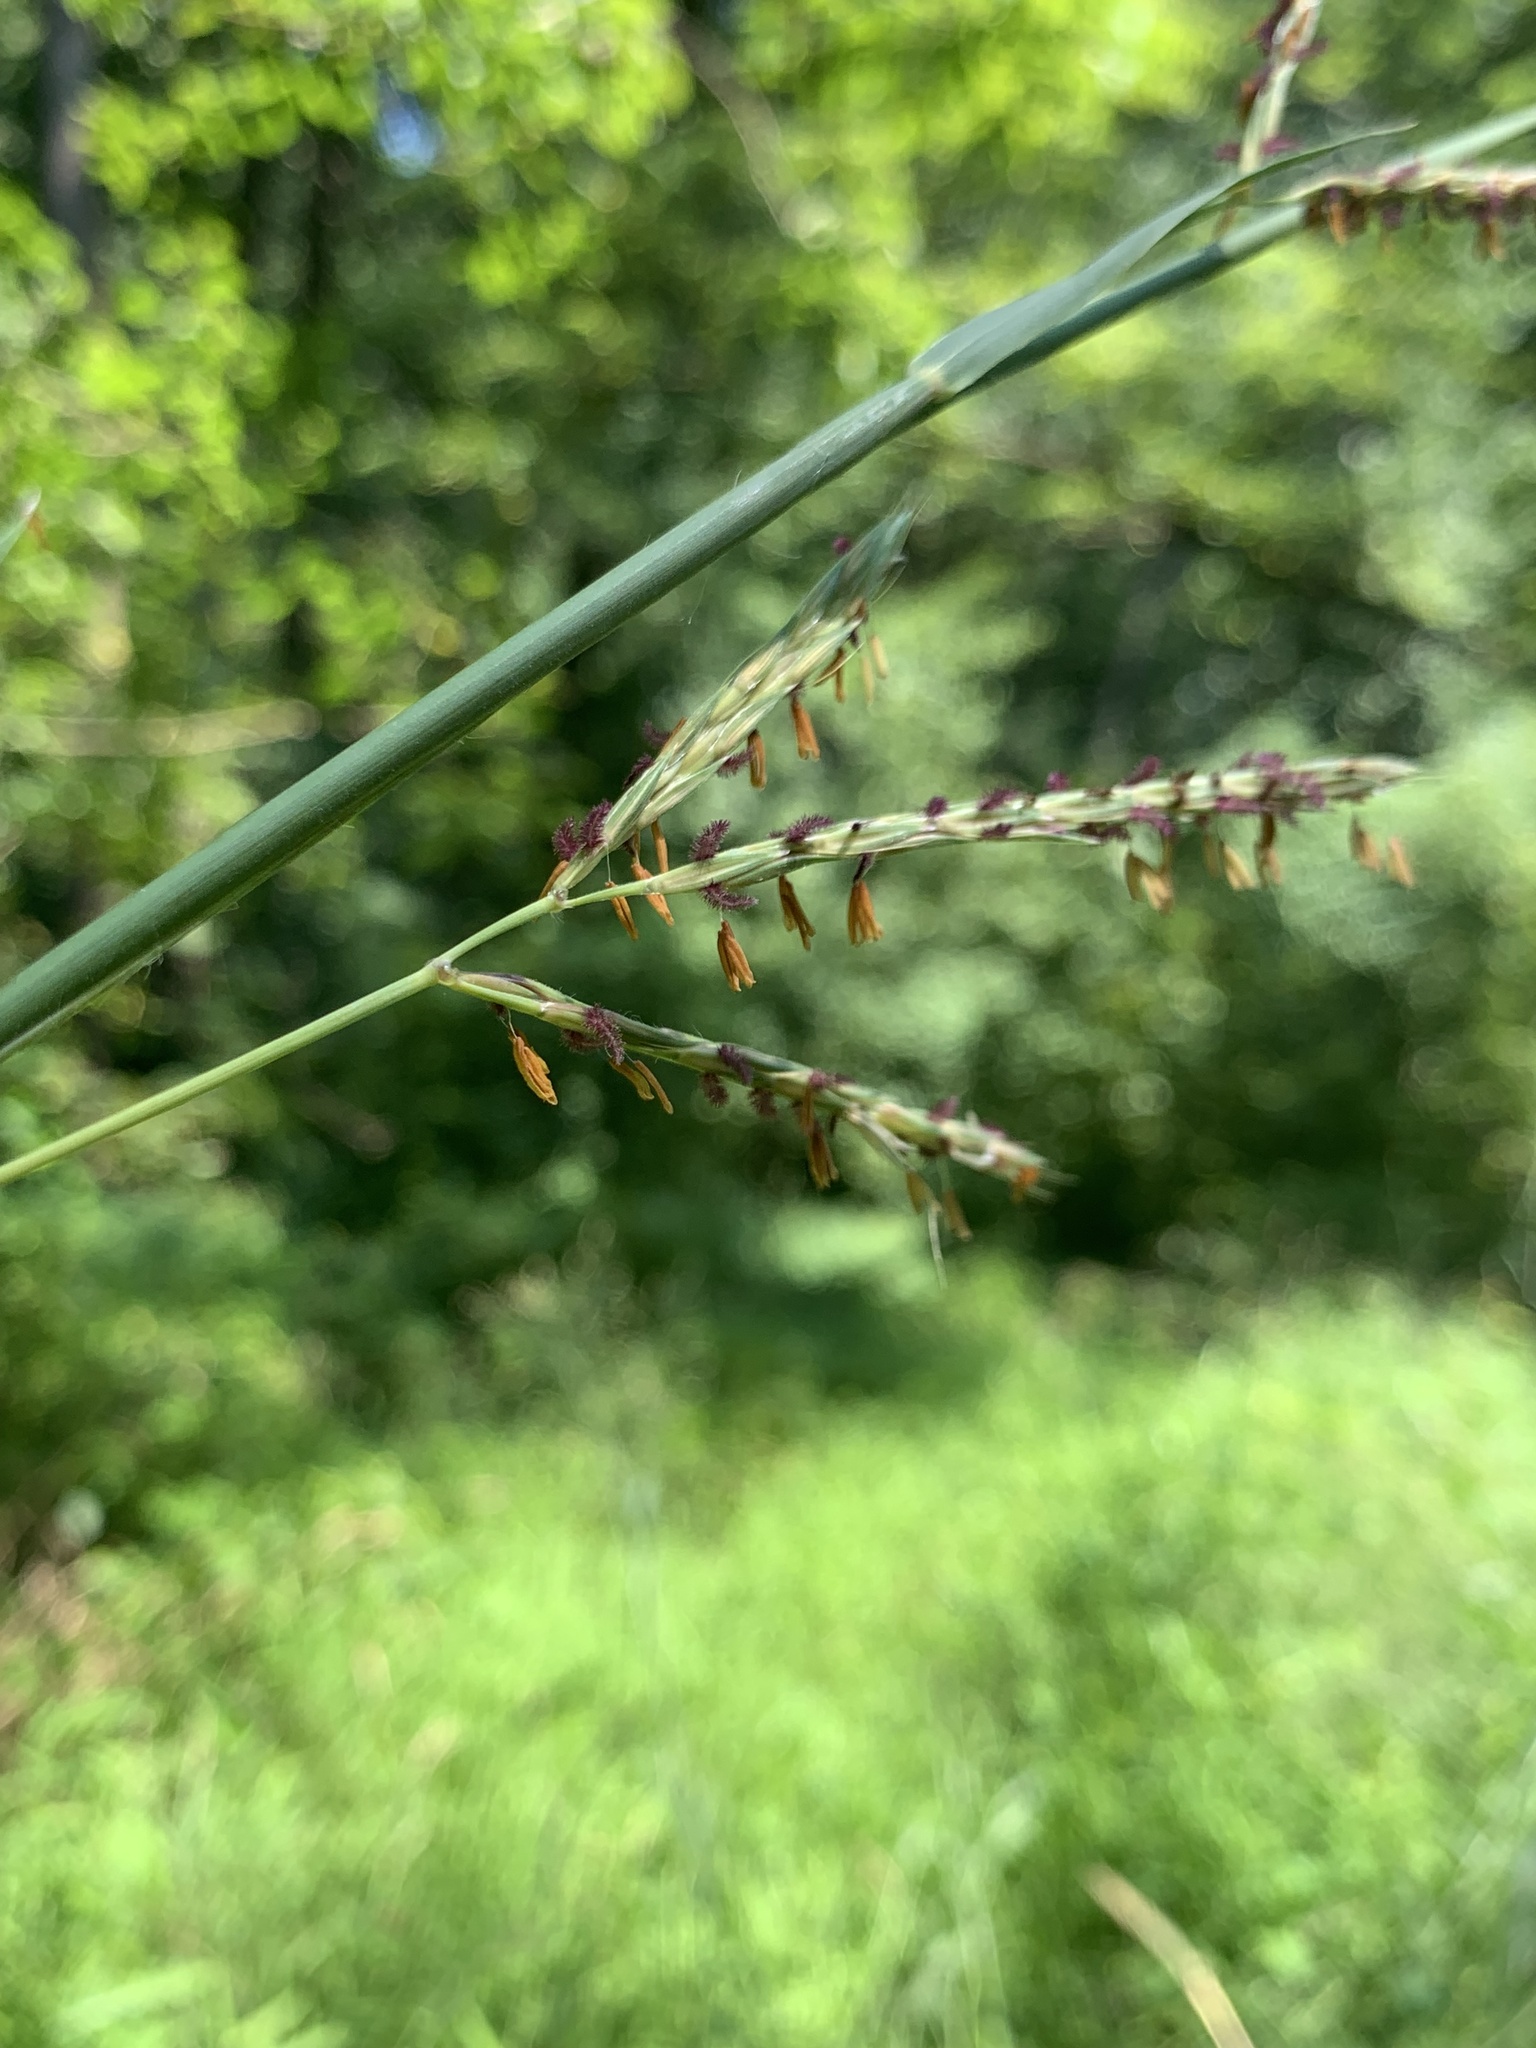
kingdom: Plantae
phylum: Tracheophyta
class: Liliopsida
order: Poales
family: Poaceae
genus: Andropogon
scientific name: Andropogon gerardi
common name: Big bluestem
